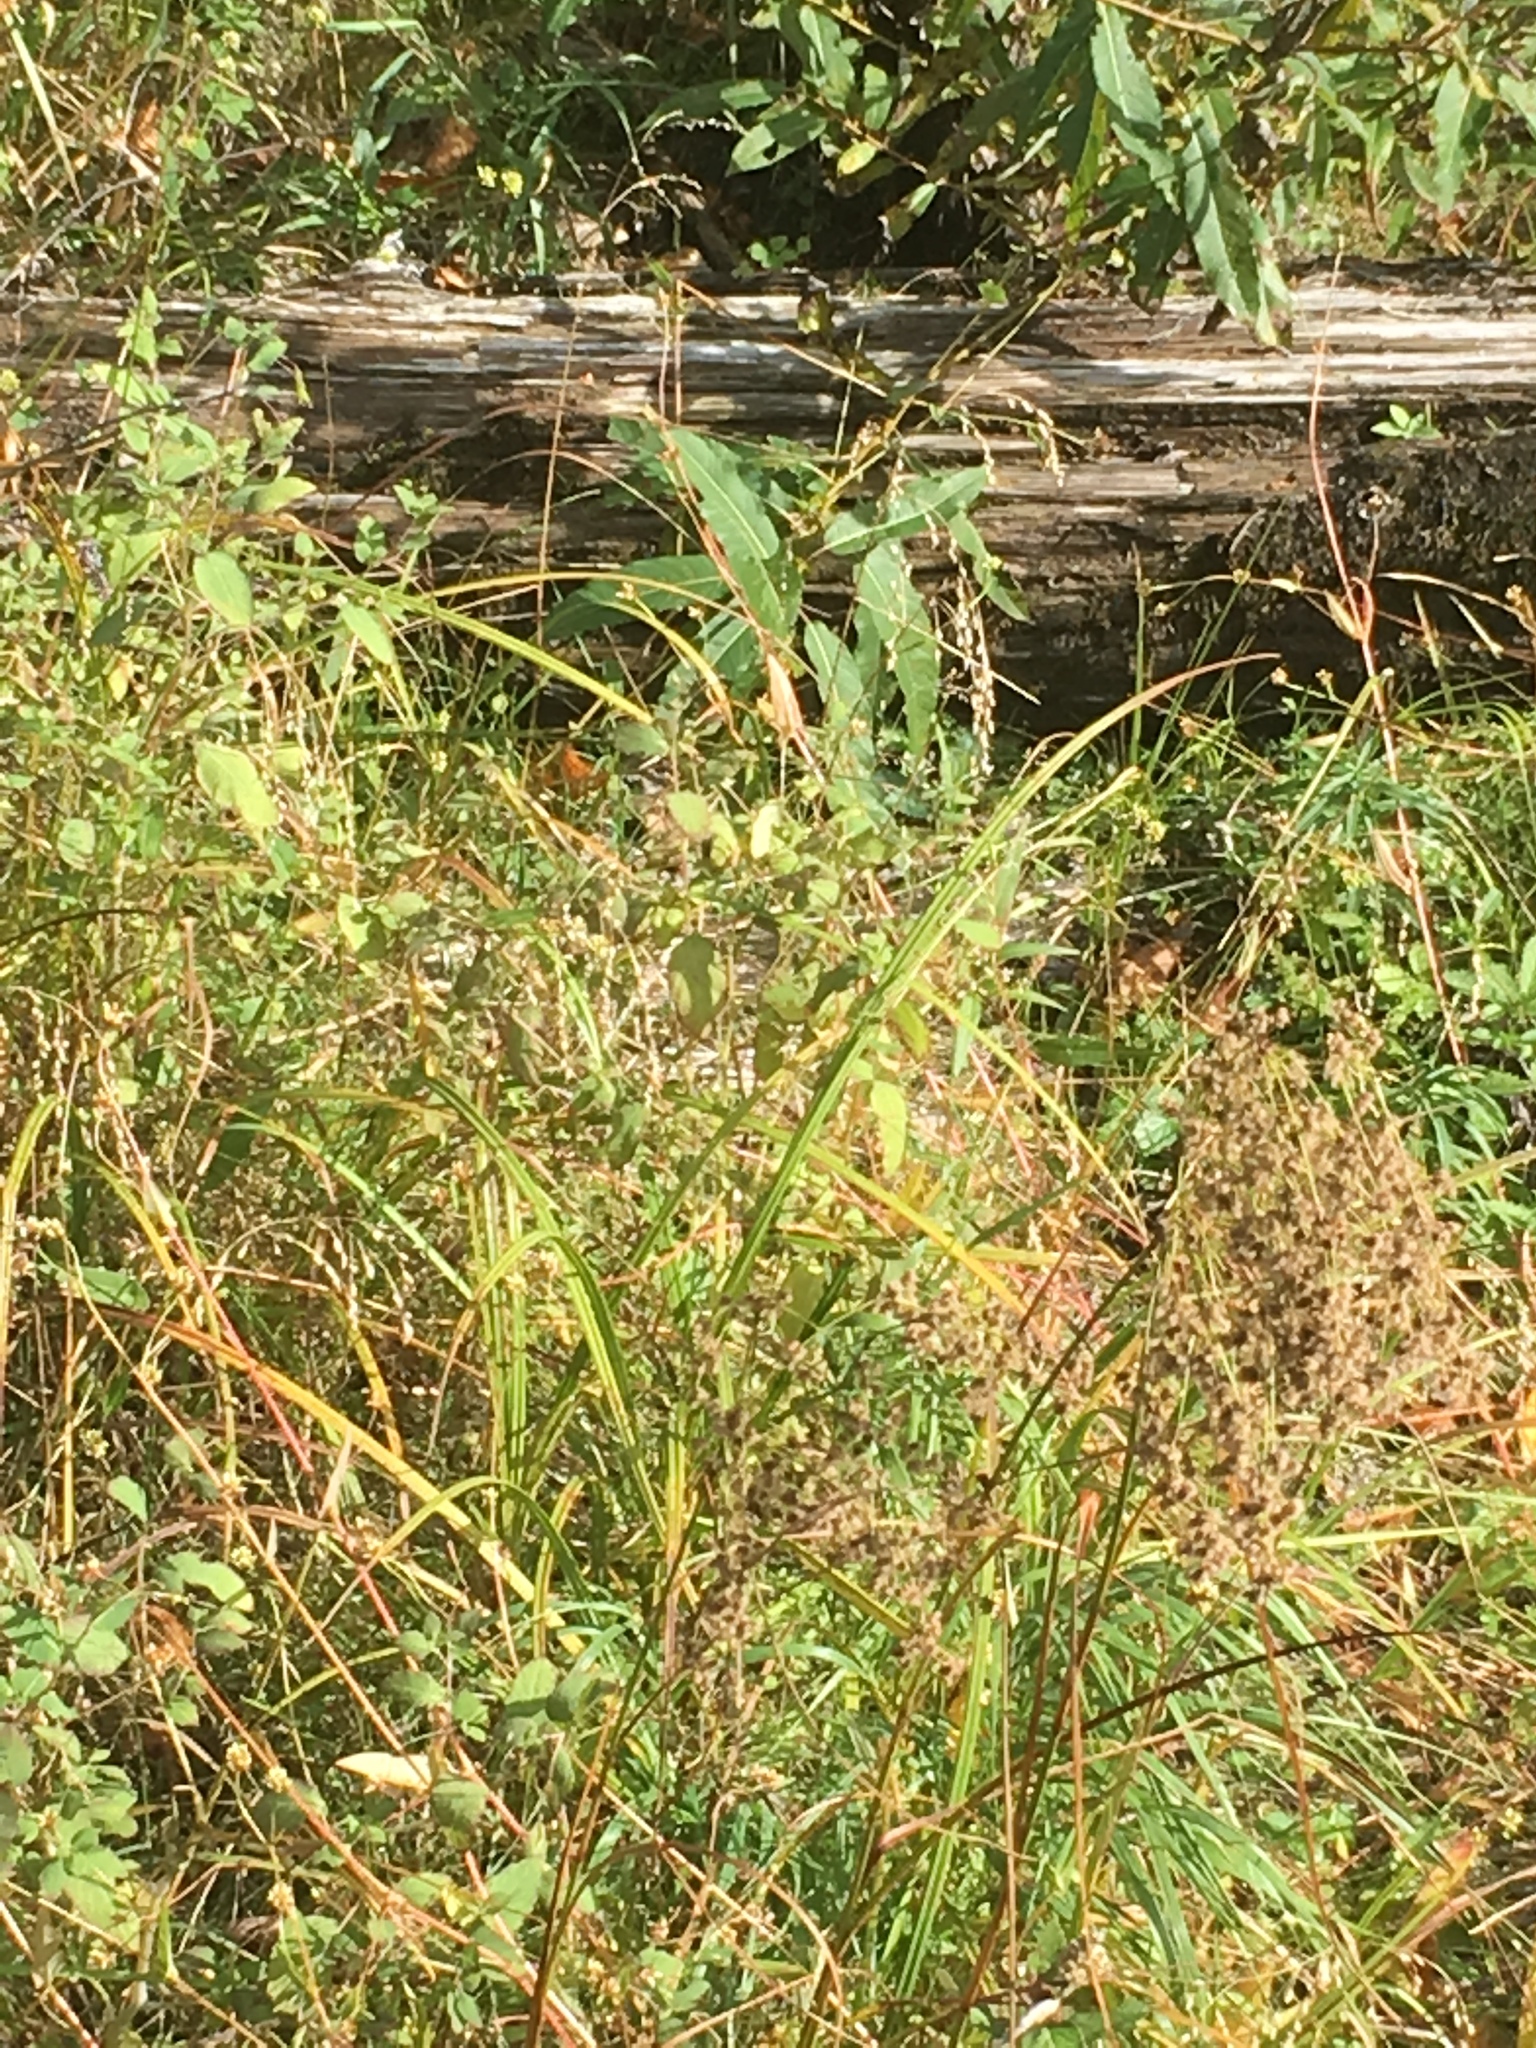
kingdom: Plantae
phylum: Tracheophyta
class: Liliopsida
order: Poales
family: Cyperaceae
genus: Scirpus
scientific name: Scirpus cyperinus
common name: Black-sheathed bulrush
